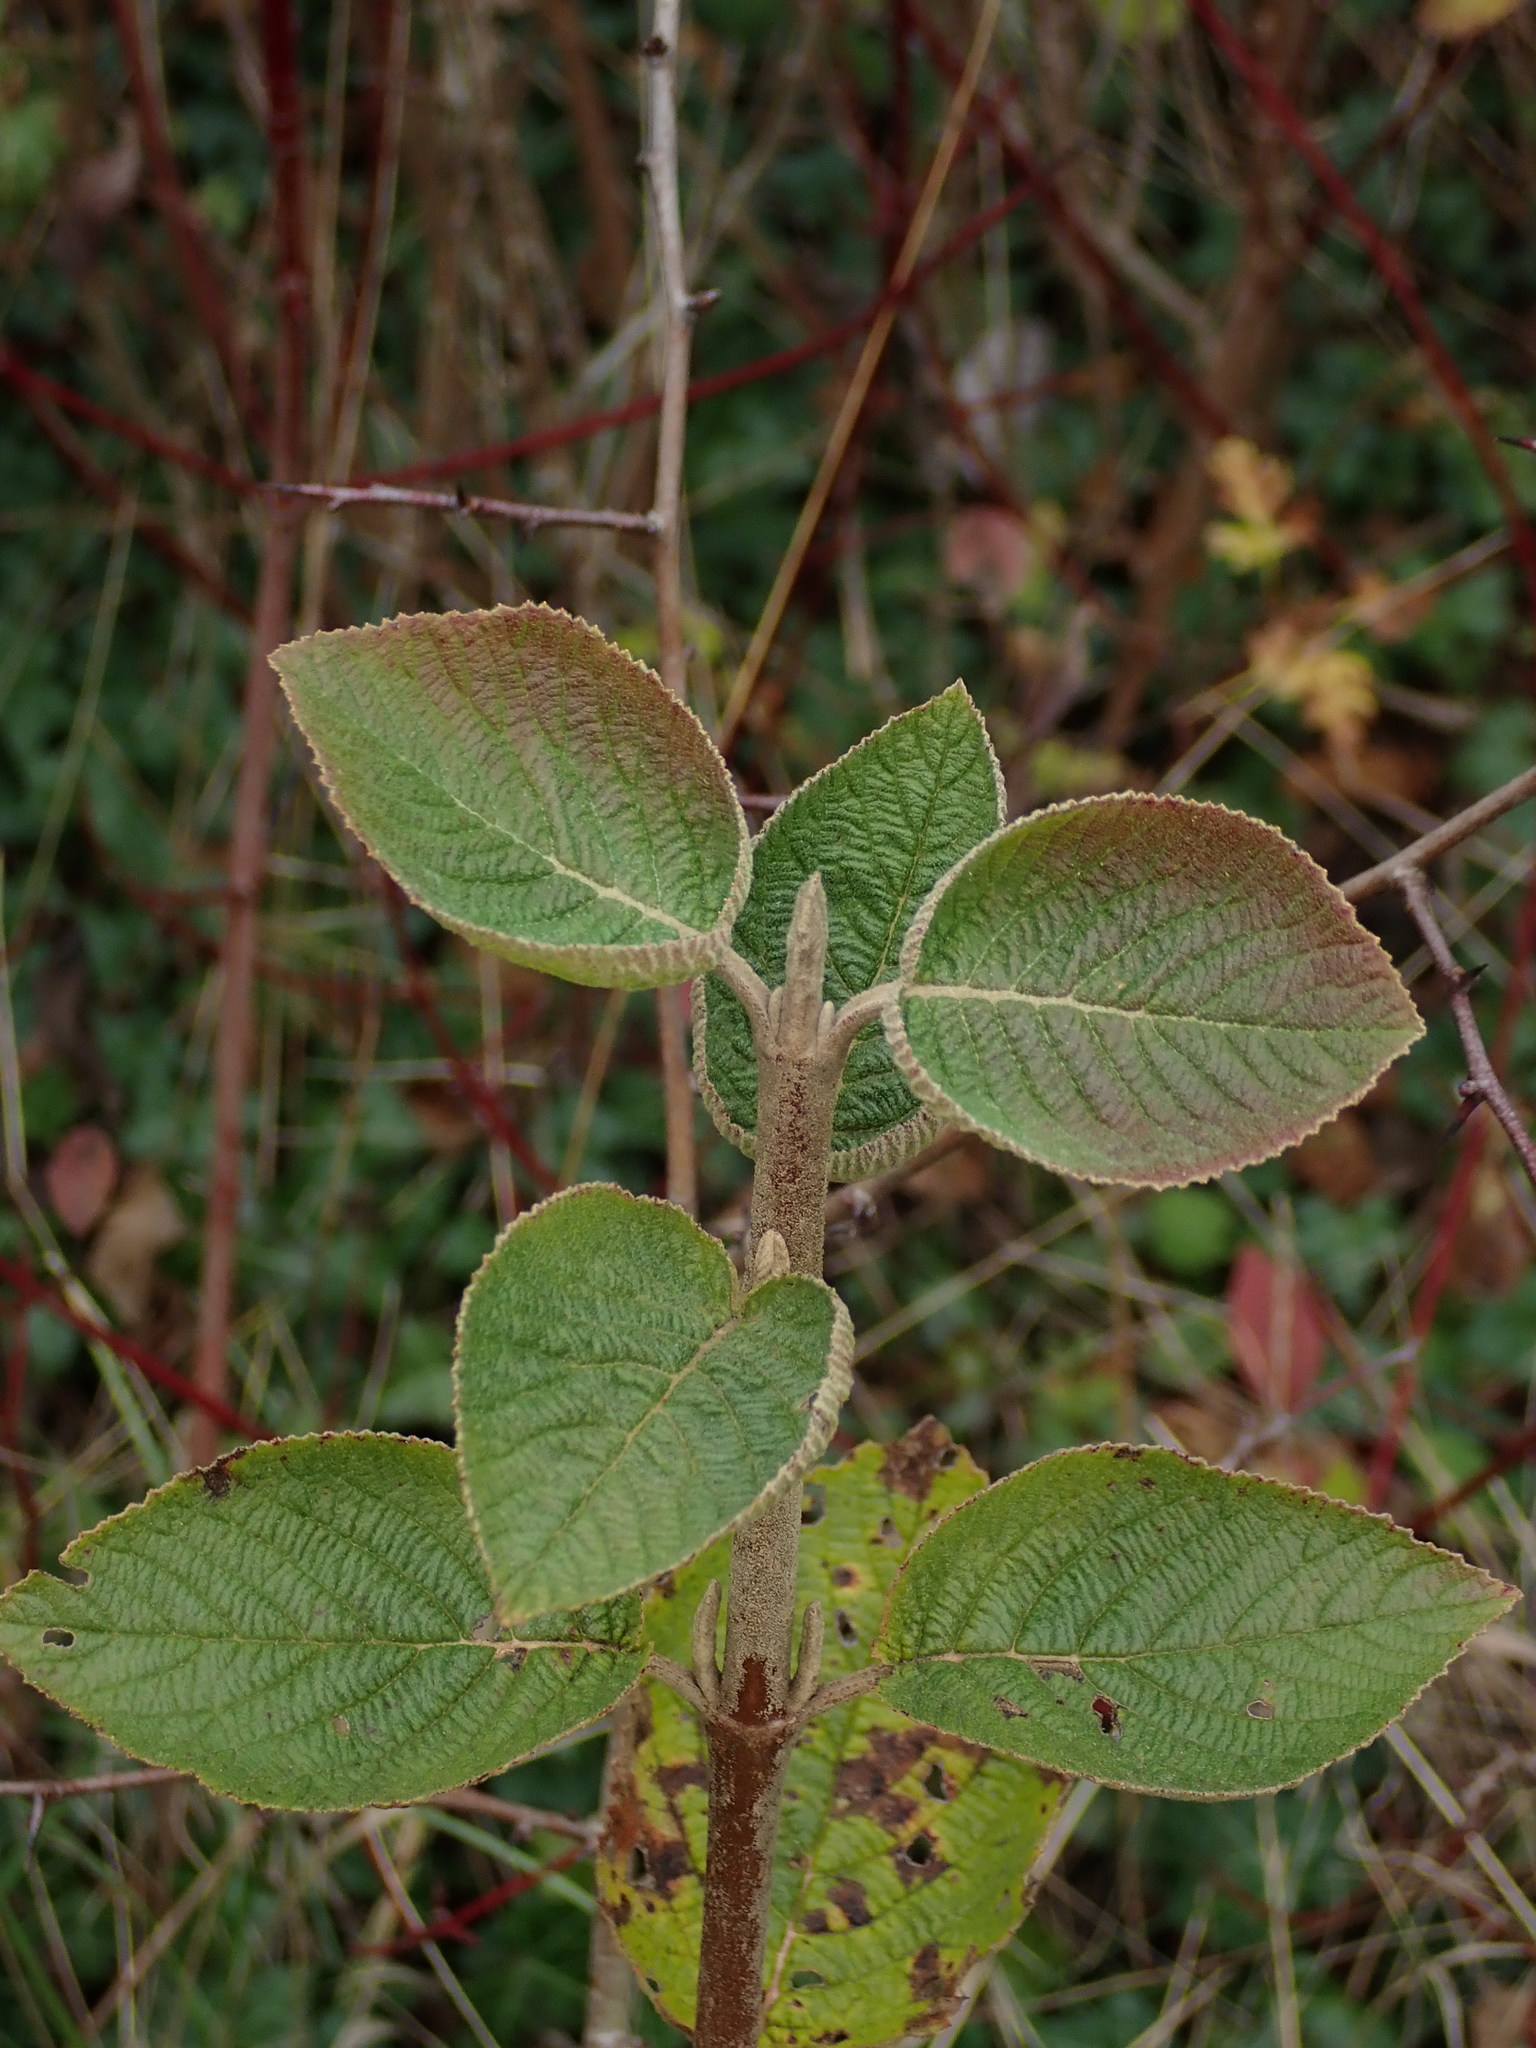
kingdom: Plantae
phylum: Tracheophyta
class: Magnoliopsida
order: Dipsacales
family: Viburnaceae
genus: Viburnum
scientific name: Viburnum lantana
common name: Wayfaring tree
